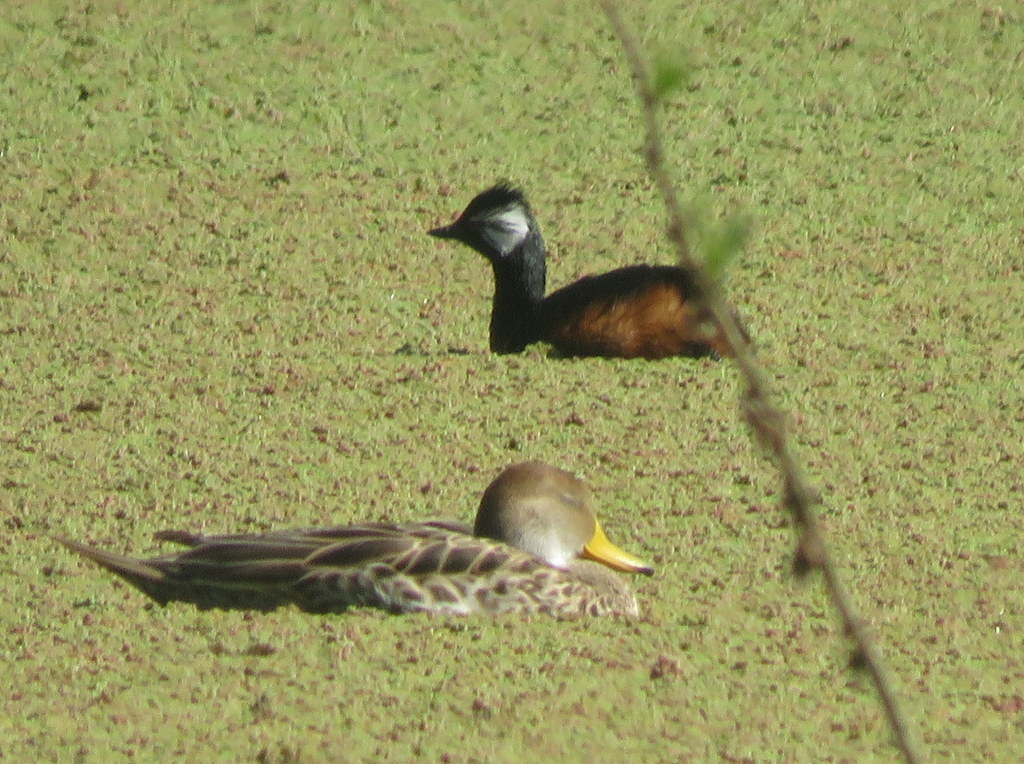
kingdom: Animalia
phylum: Chordata
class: Aves
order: Podicipediformes
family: Podicipedidae
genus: Rollandia
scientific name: Rollandia rolland
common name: White-tufted grebe
